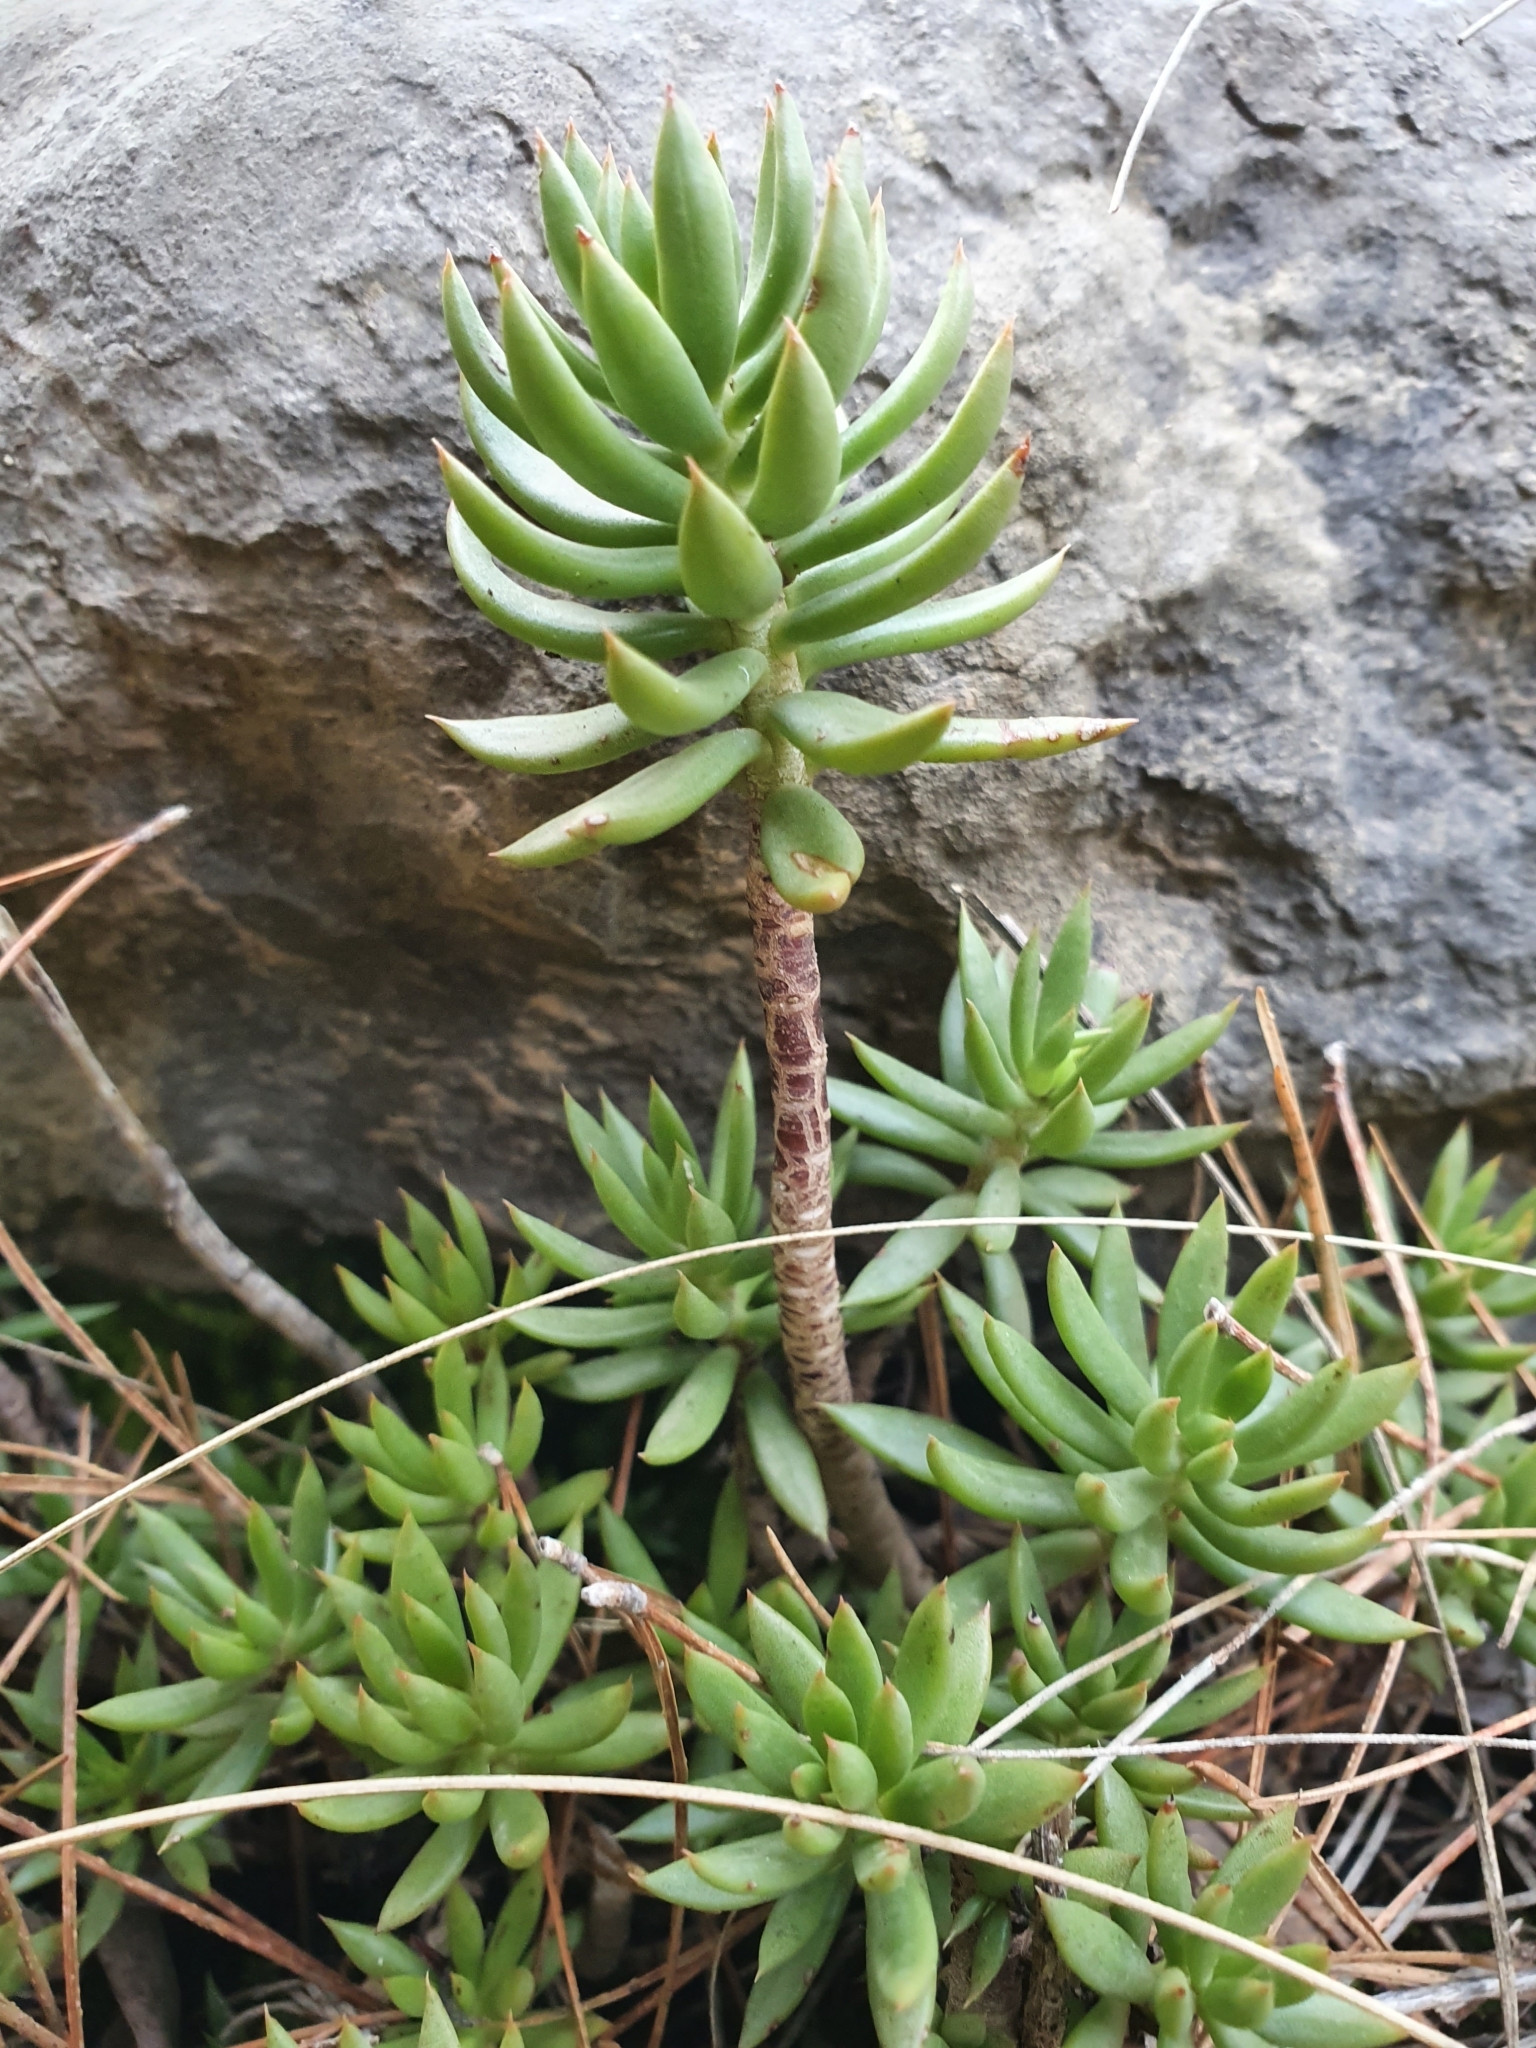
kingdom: Plantae
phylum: Tracheophyta
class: Magnoliopsida
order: Saxifragales
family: Crassulaceae
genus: Petrosedum
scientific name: Petrosedum sediforme
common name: Pale stonecrop
